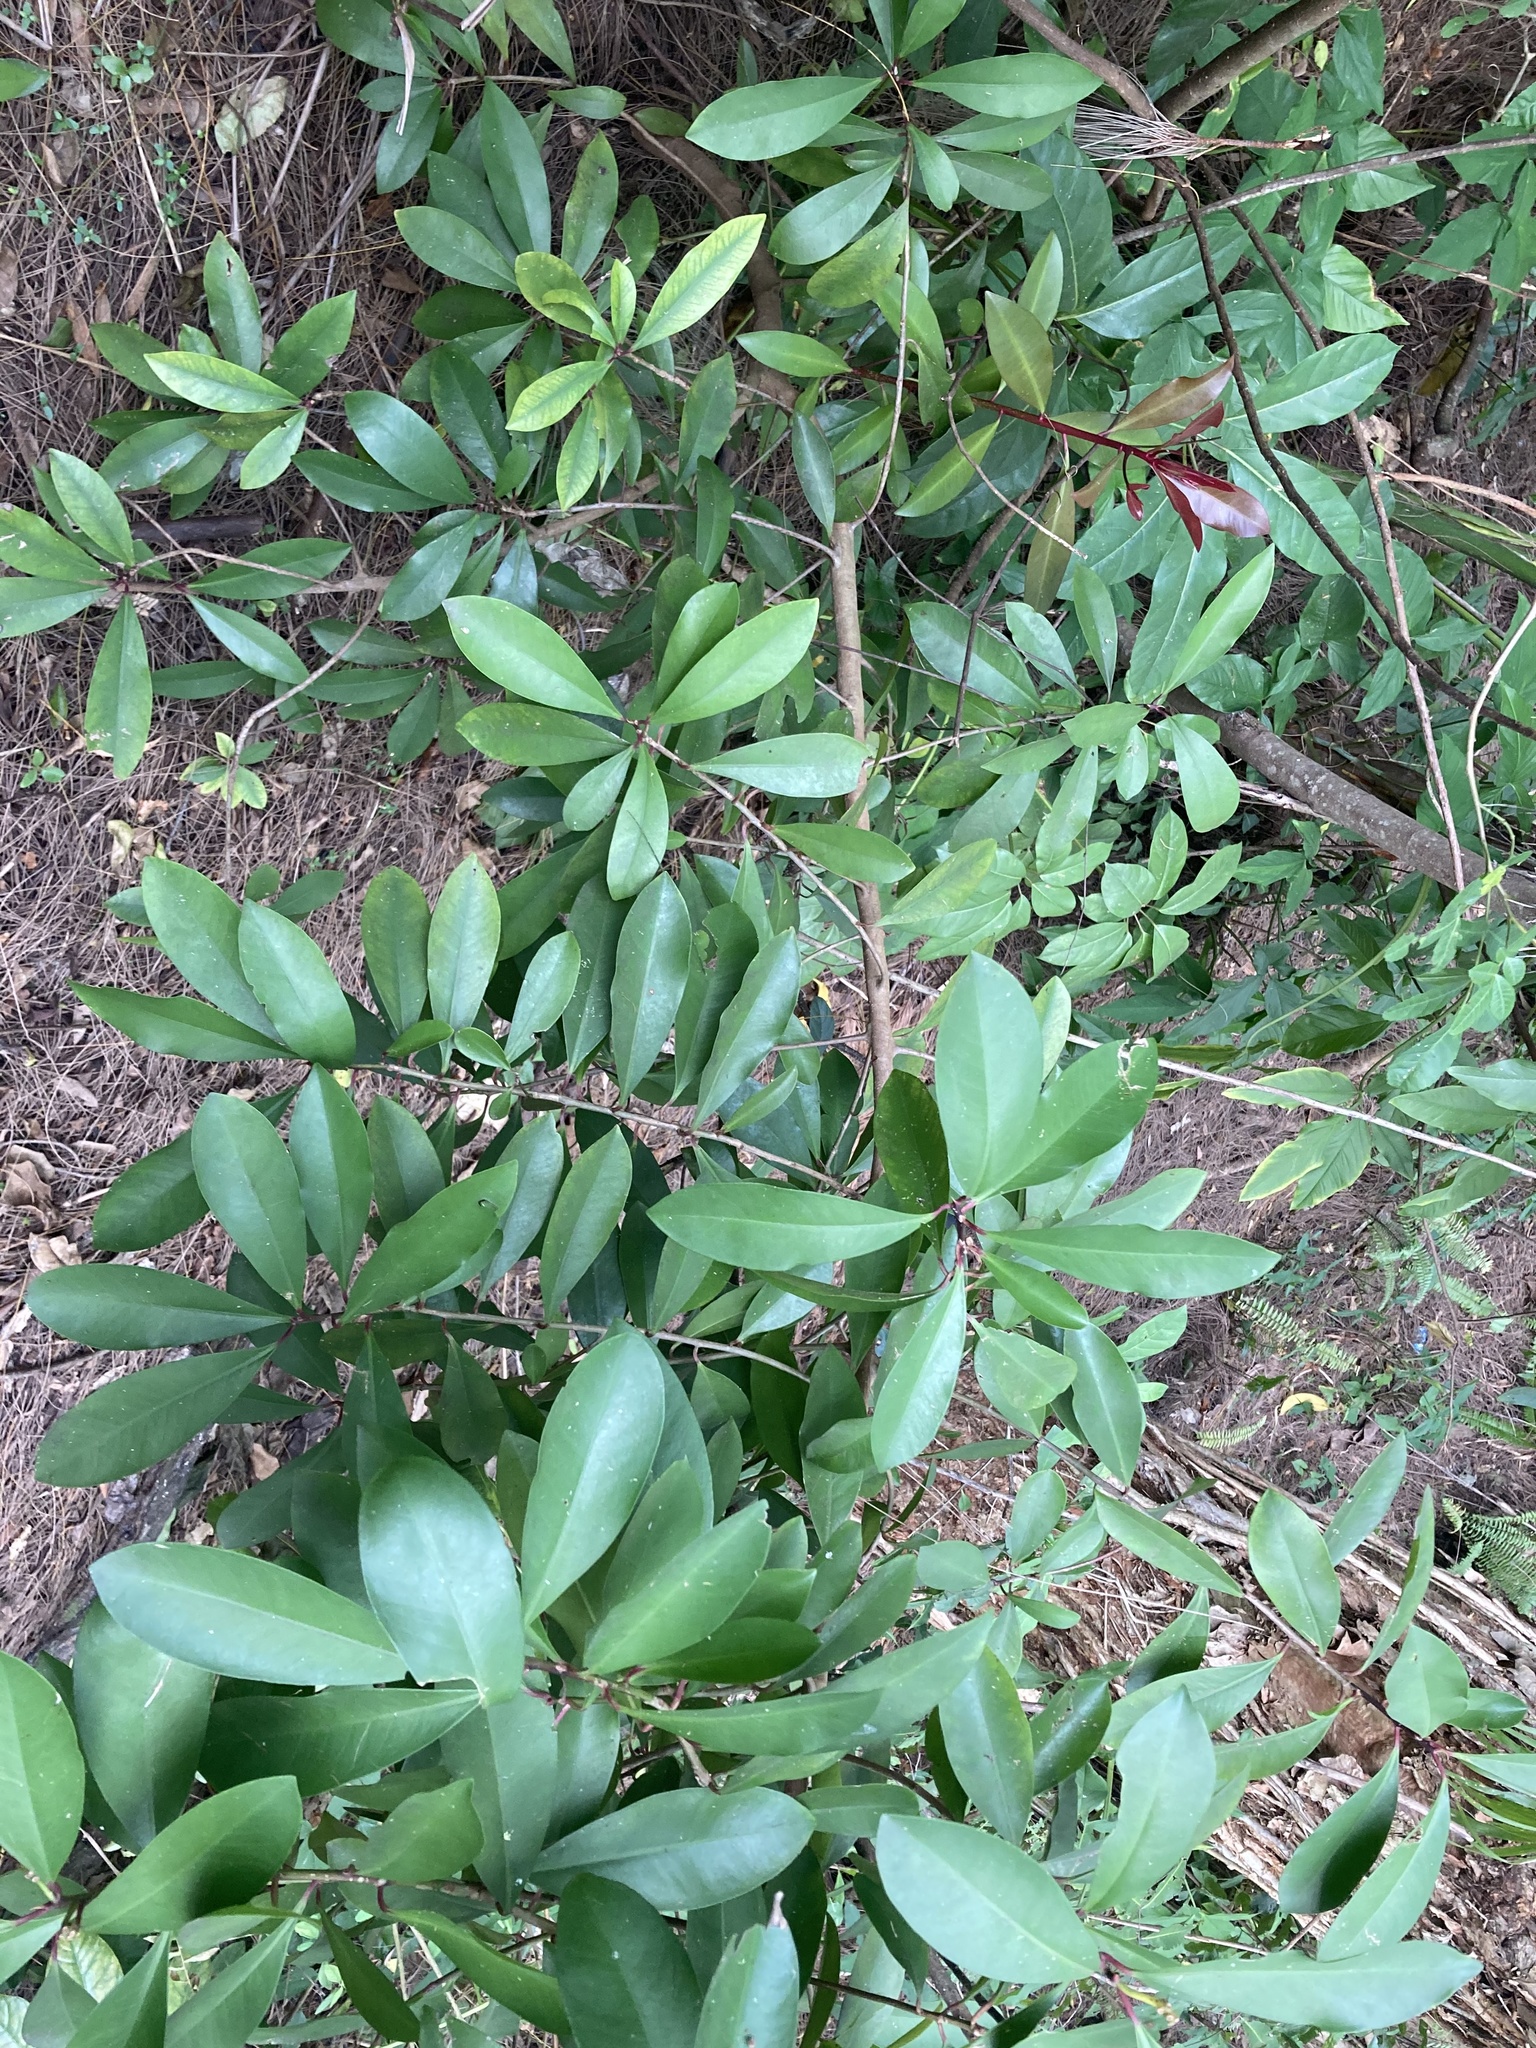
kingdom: Plantae
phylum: Tracheophyta
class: Magnoliopsida
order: Ericales
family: Primulaceae
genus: Ardisia
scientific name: Ardisia elliptica
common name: Shoebutton
